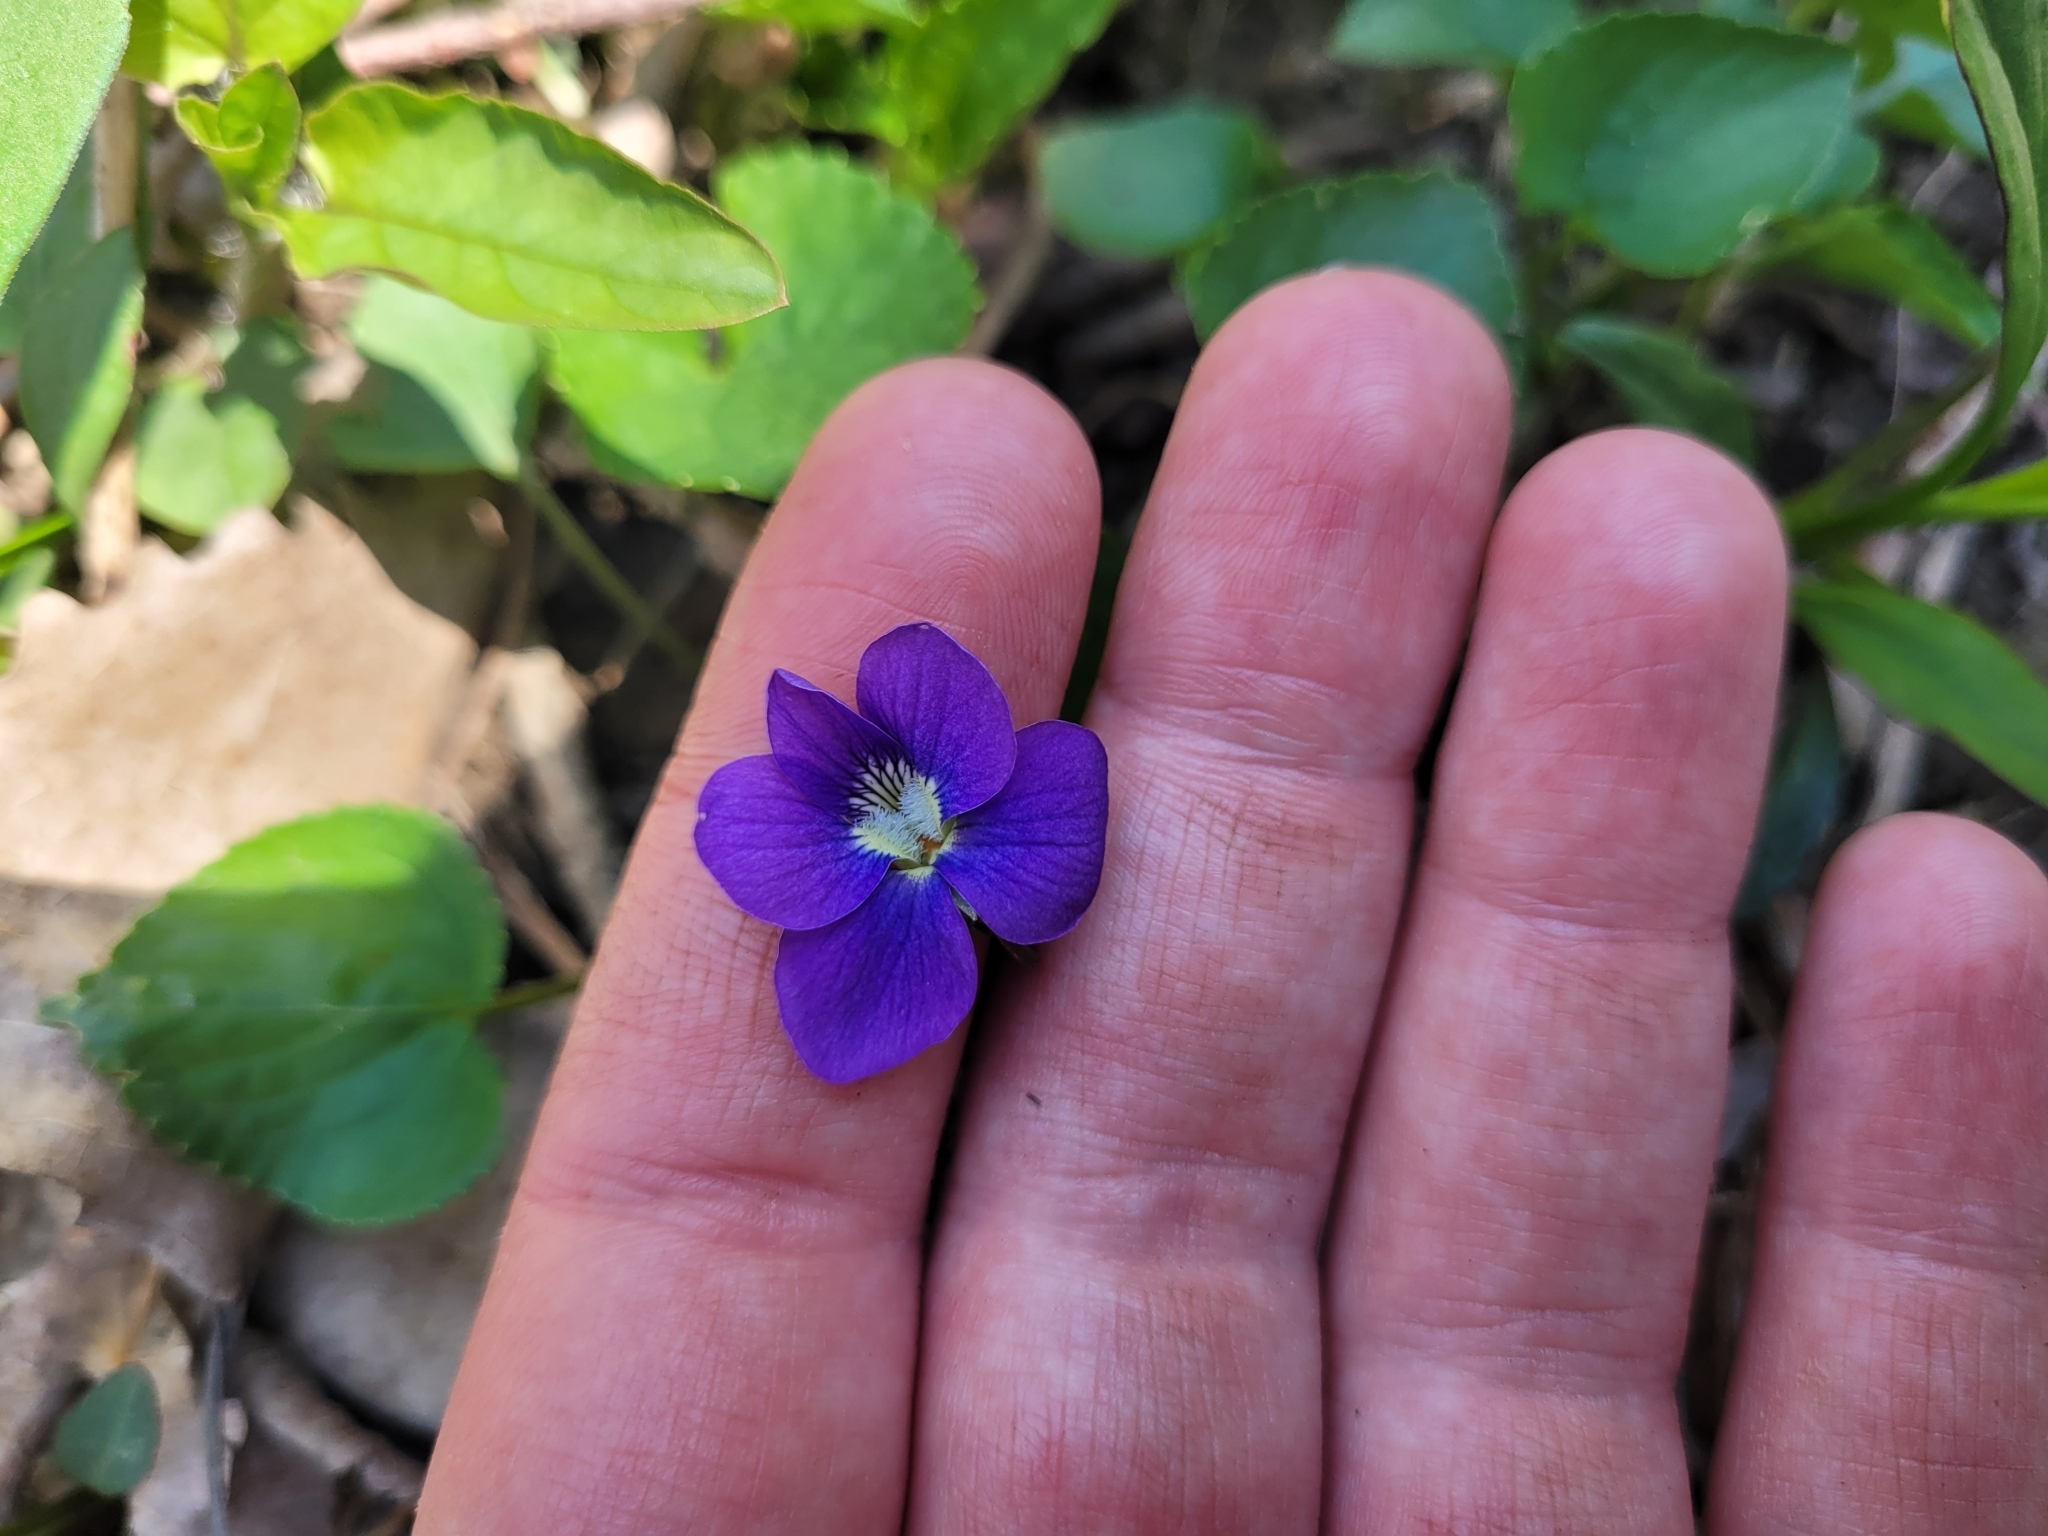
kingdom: Plantae
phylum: Tracheophyta
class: Magnoliopsida
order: Malpighiales
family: Violaceae
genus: Viola
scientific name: Viola sororia
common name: Dooryard violet
